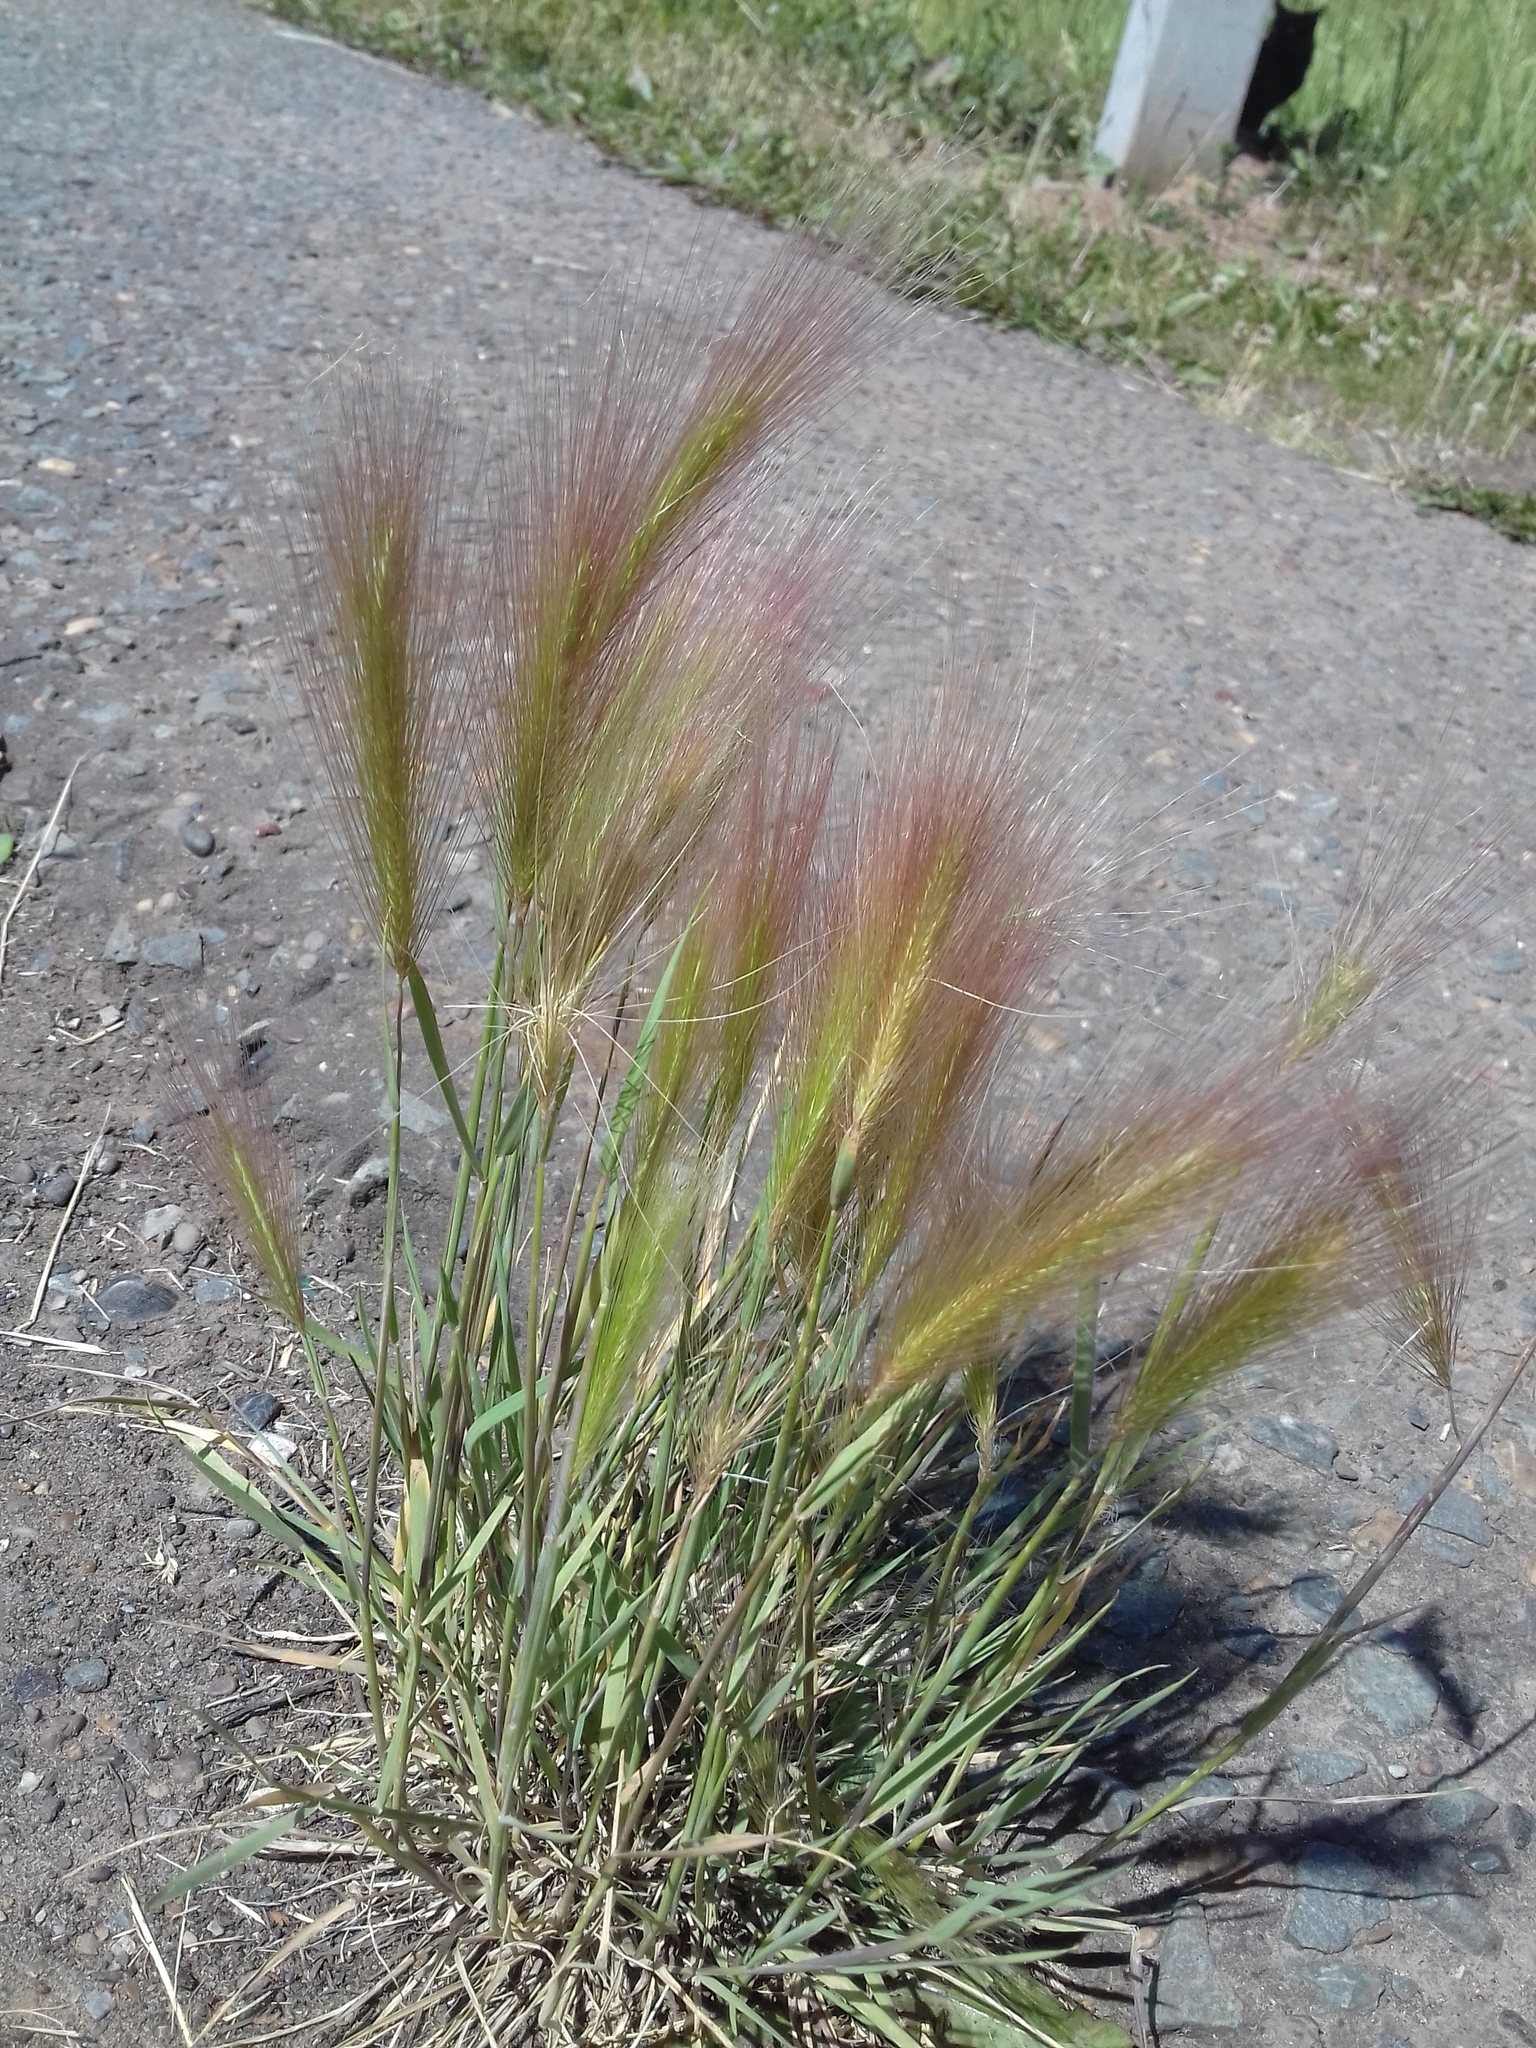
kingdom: Plantae
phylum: Tracheophyta
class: Liliopsida
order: Poales
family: Poaceae
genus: Hordeum
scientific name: Hordeum jubatum
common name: Foxtail barley
